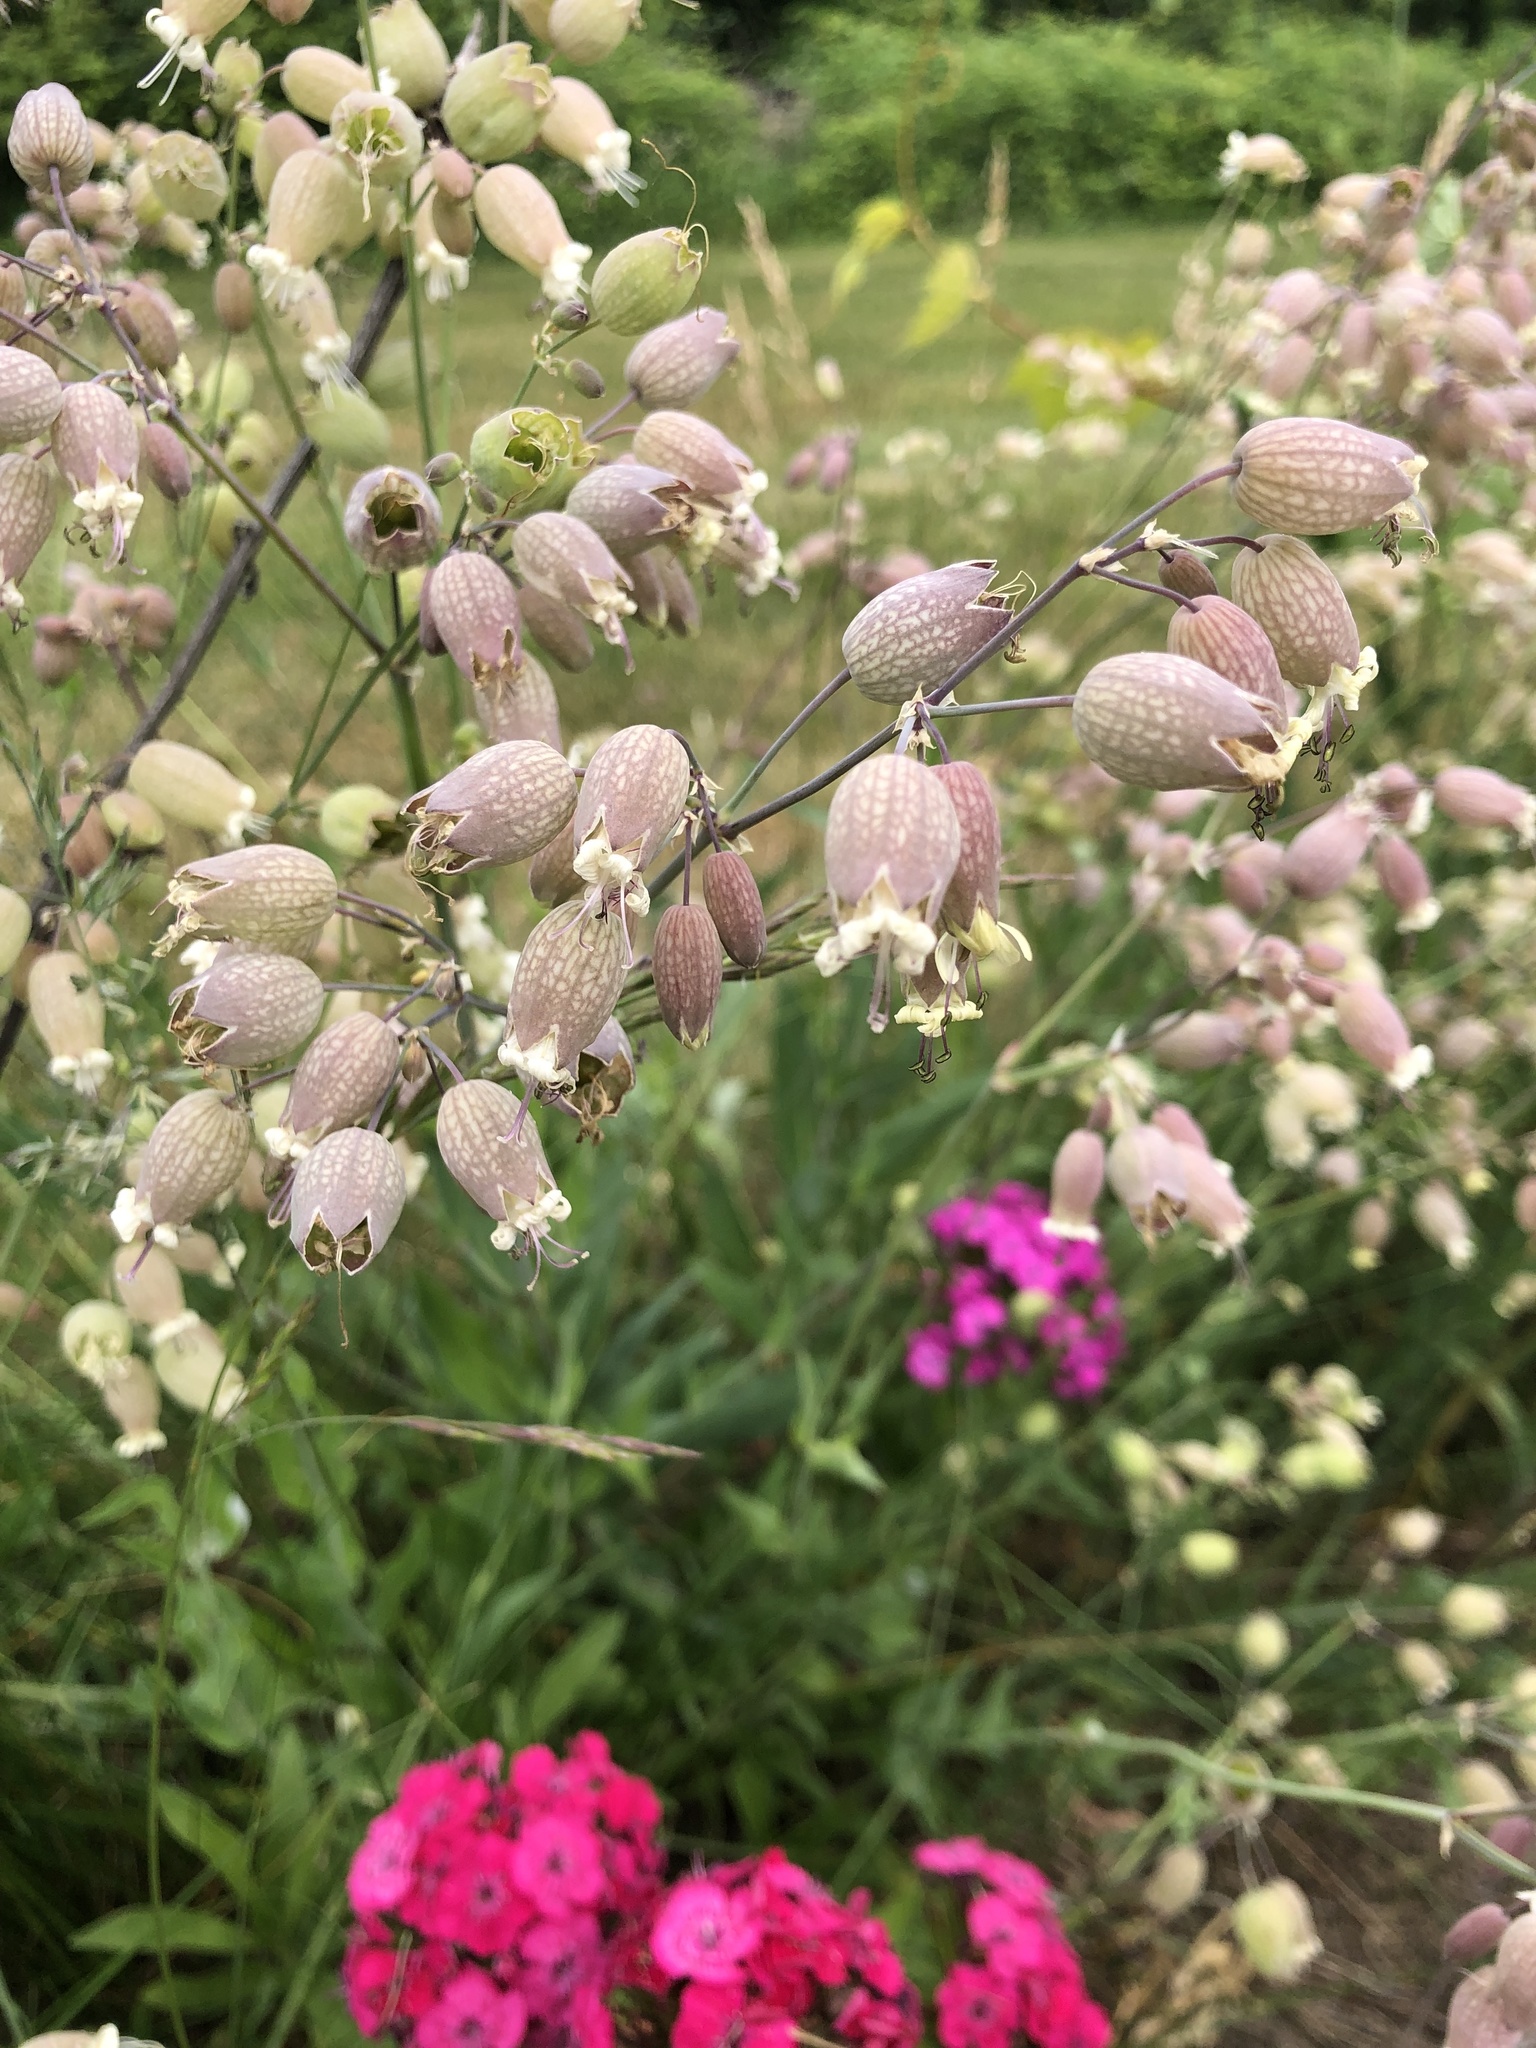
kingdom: Plantae
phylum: Tracheophyta
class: Magnoliopsida
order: Caryophyllales
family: Caryophyllaceae
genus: Silene
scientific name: Silene vulgaris
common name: Bladder campion
